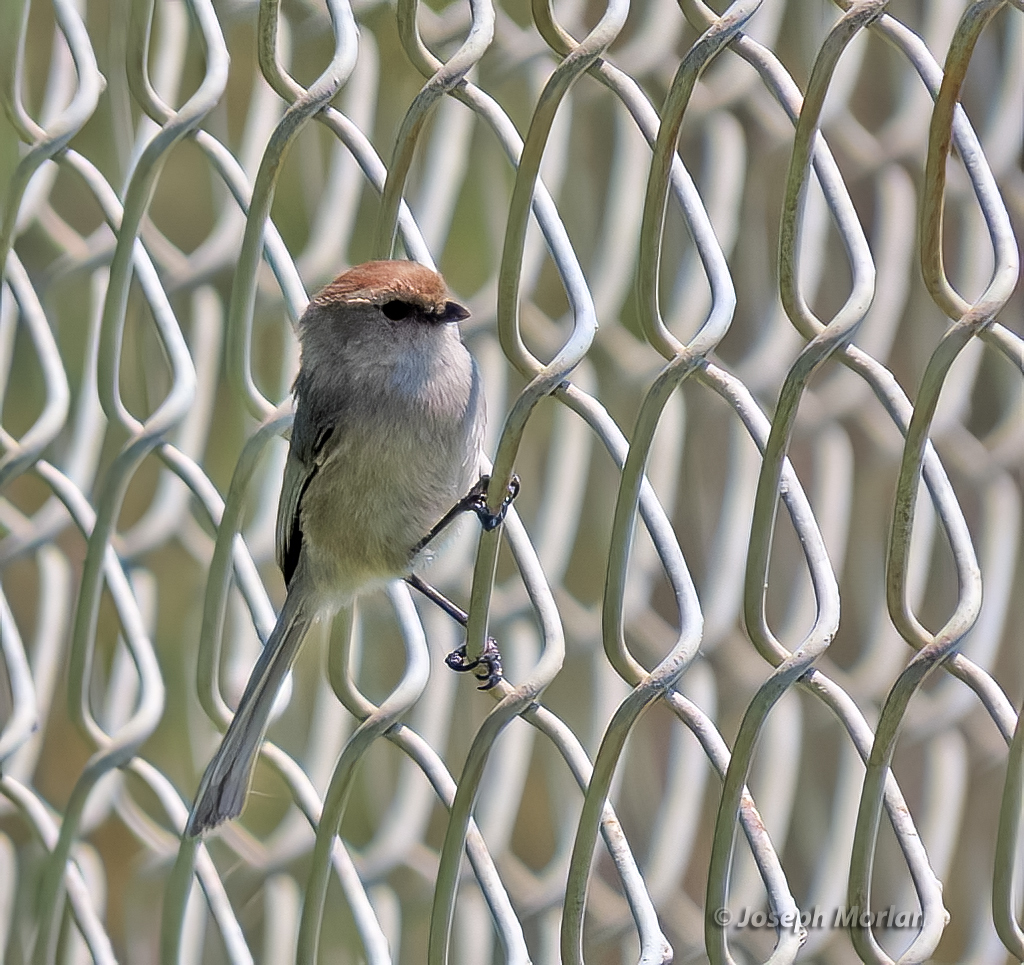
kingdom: Animalia
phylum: Chordata
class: Aves
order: Passeriformes
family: Aegithalidae
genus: Psaltriparus
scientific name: Psaltriparus minimus
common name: American bushtit
